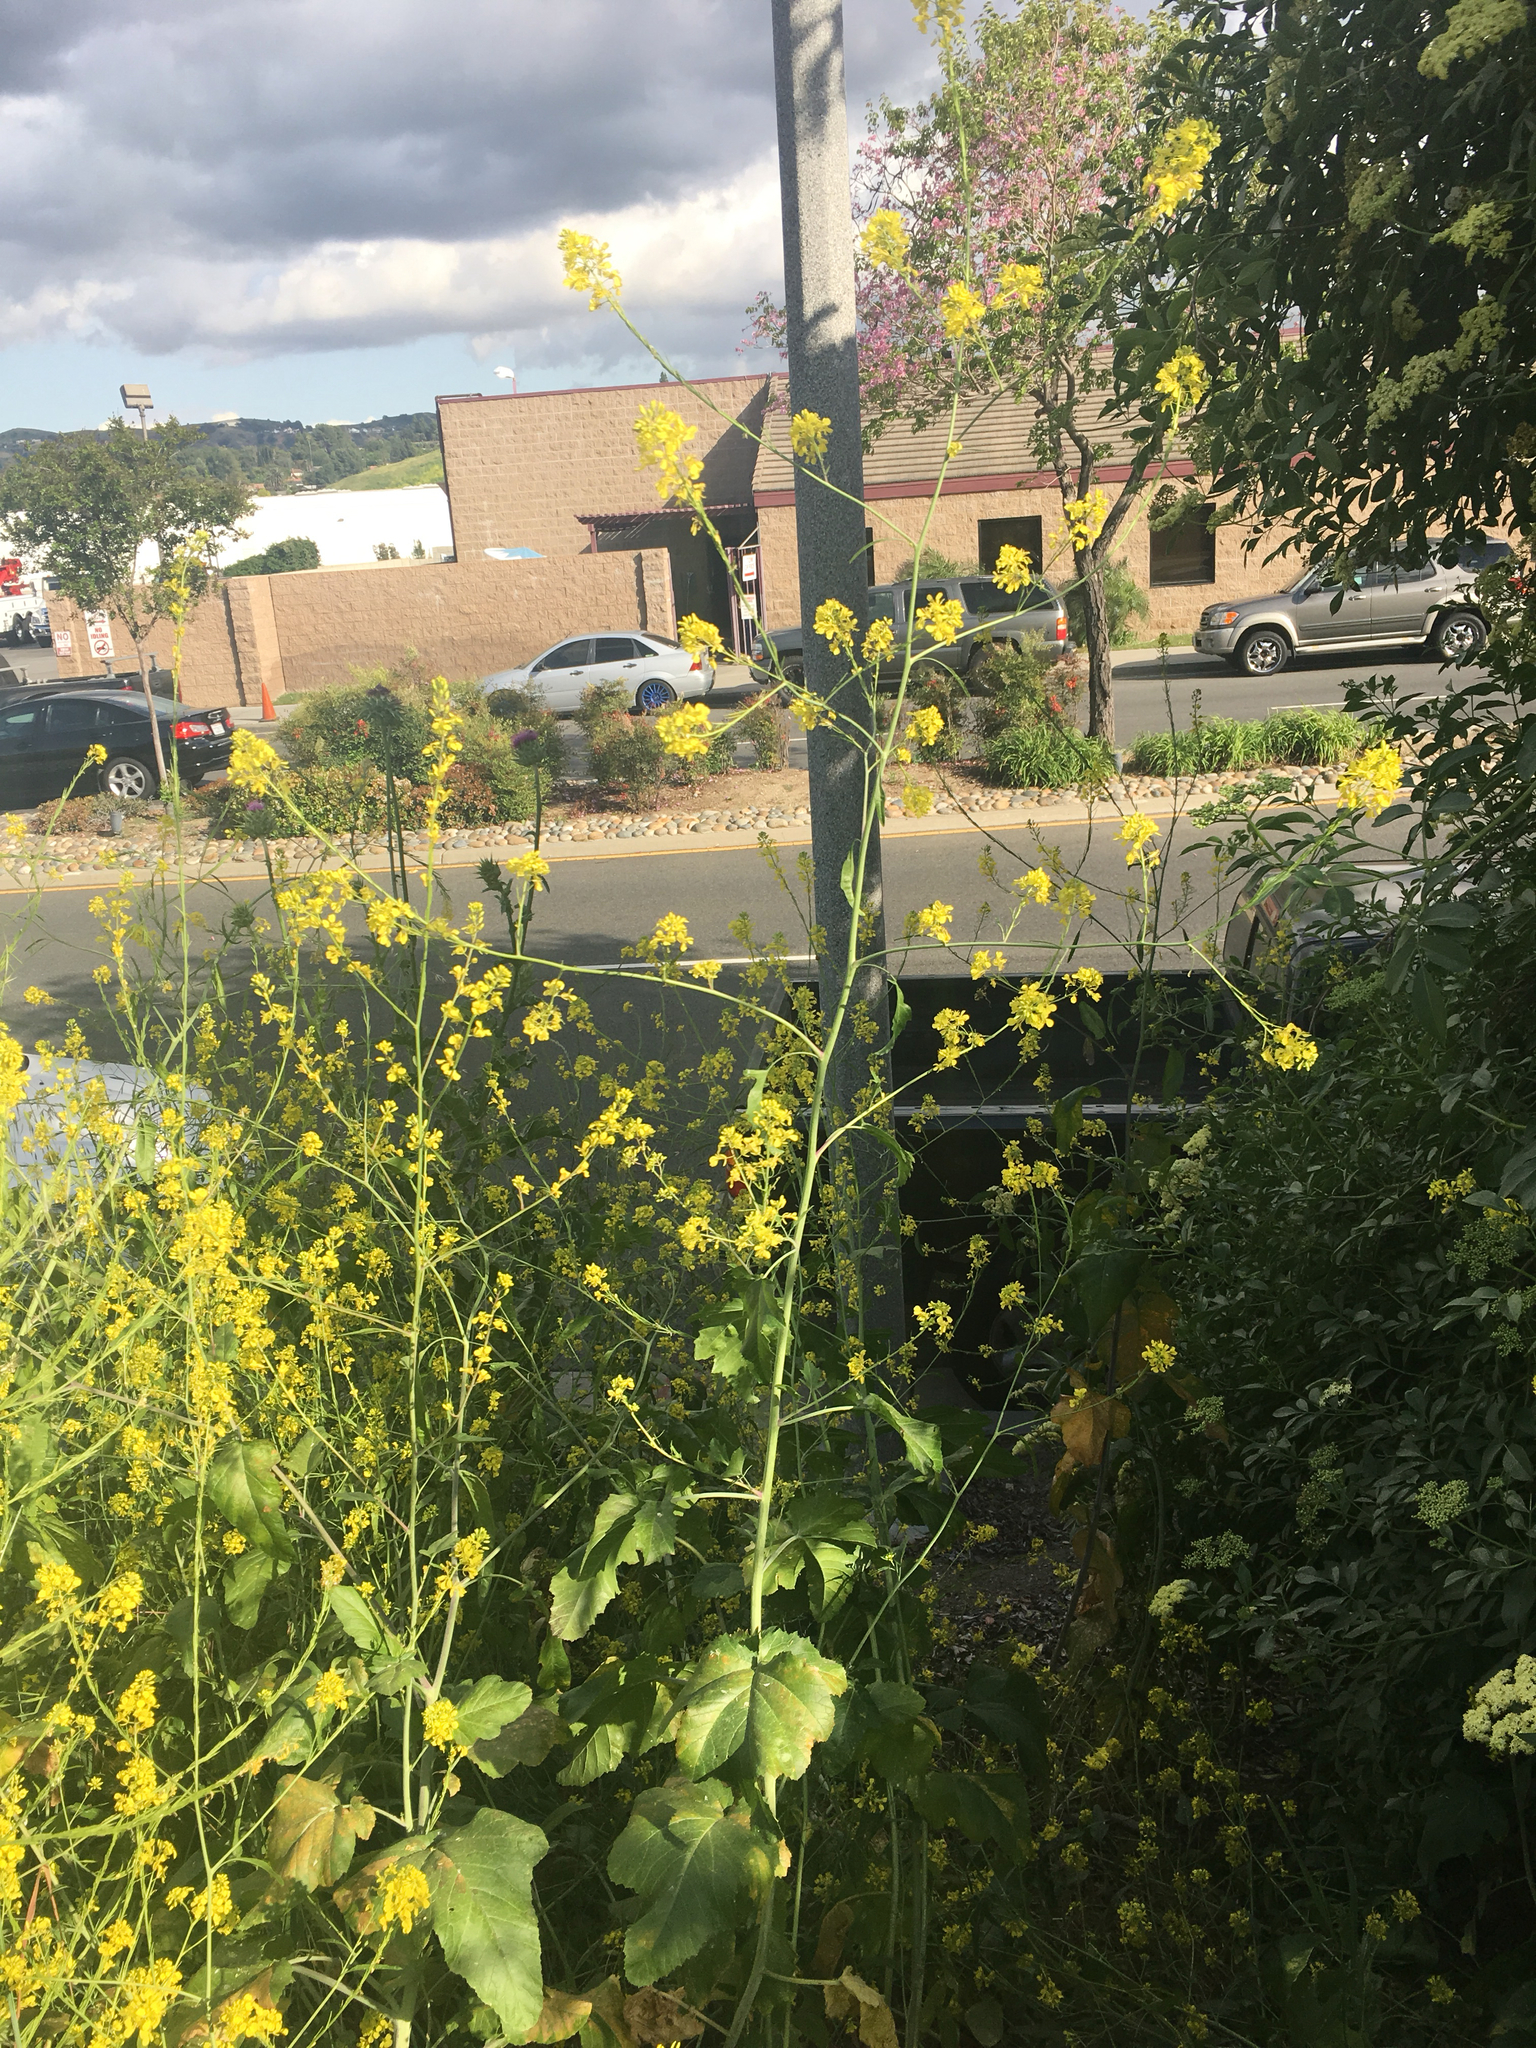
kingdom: Plantae
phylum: Tracheophyta
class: Magnoliopsida
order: Brassicales
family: Brassicaceae
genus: Brassica
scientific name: Brassica nigra
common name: Black mustard
